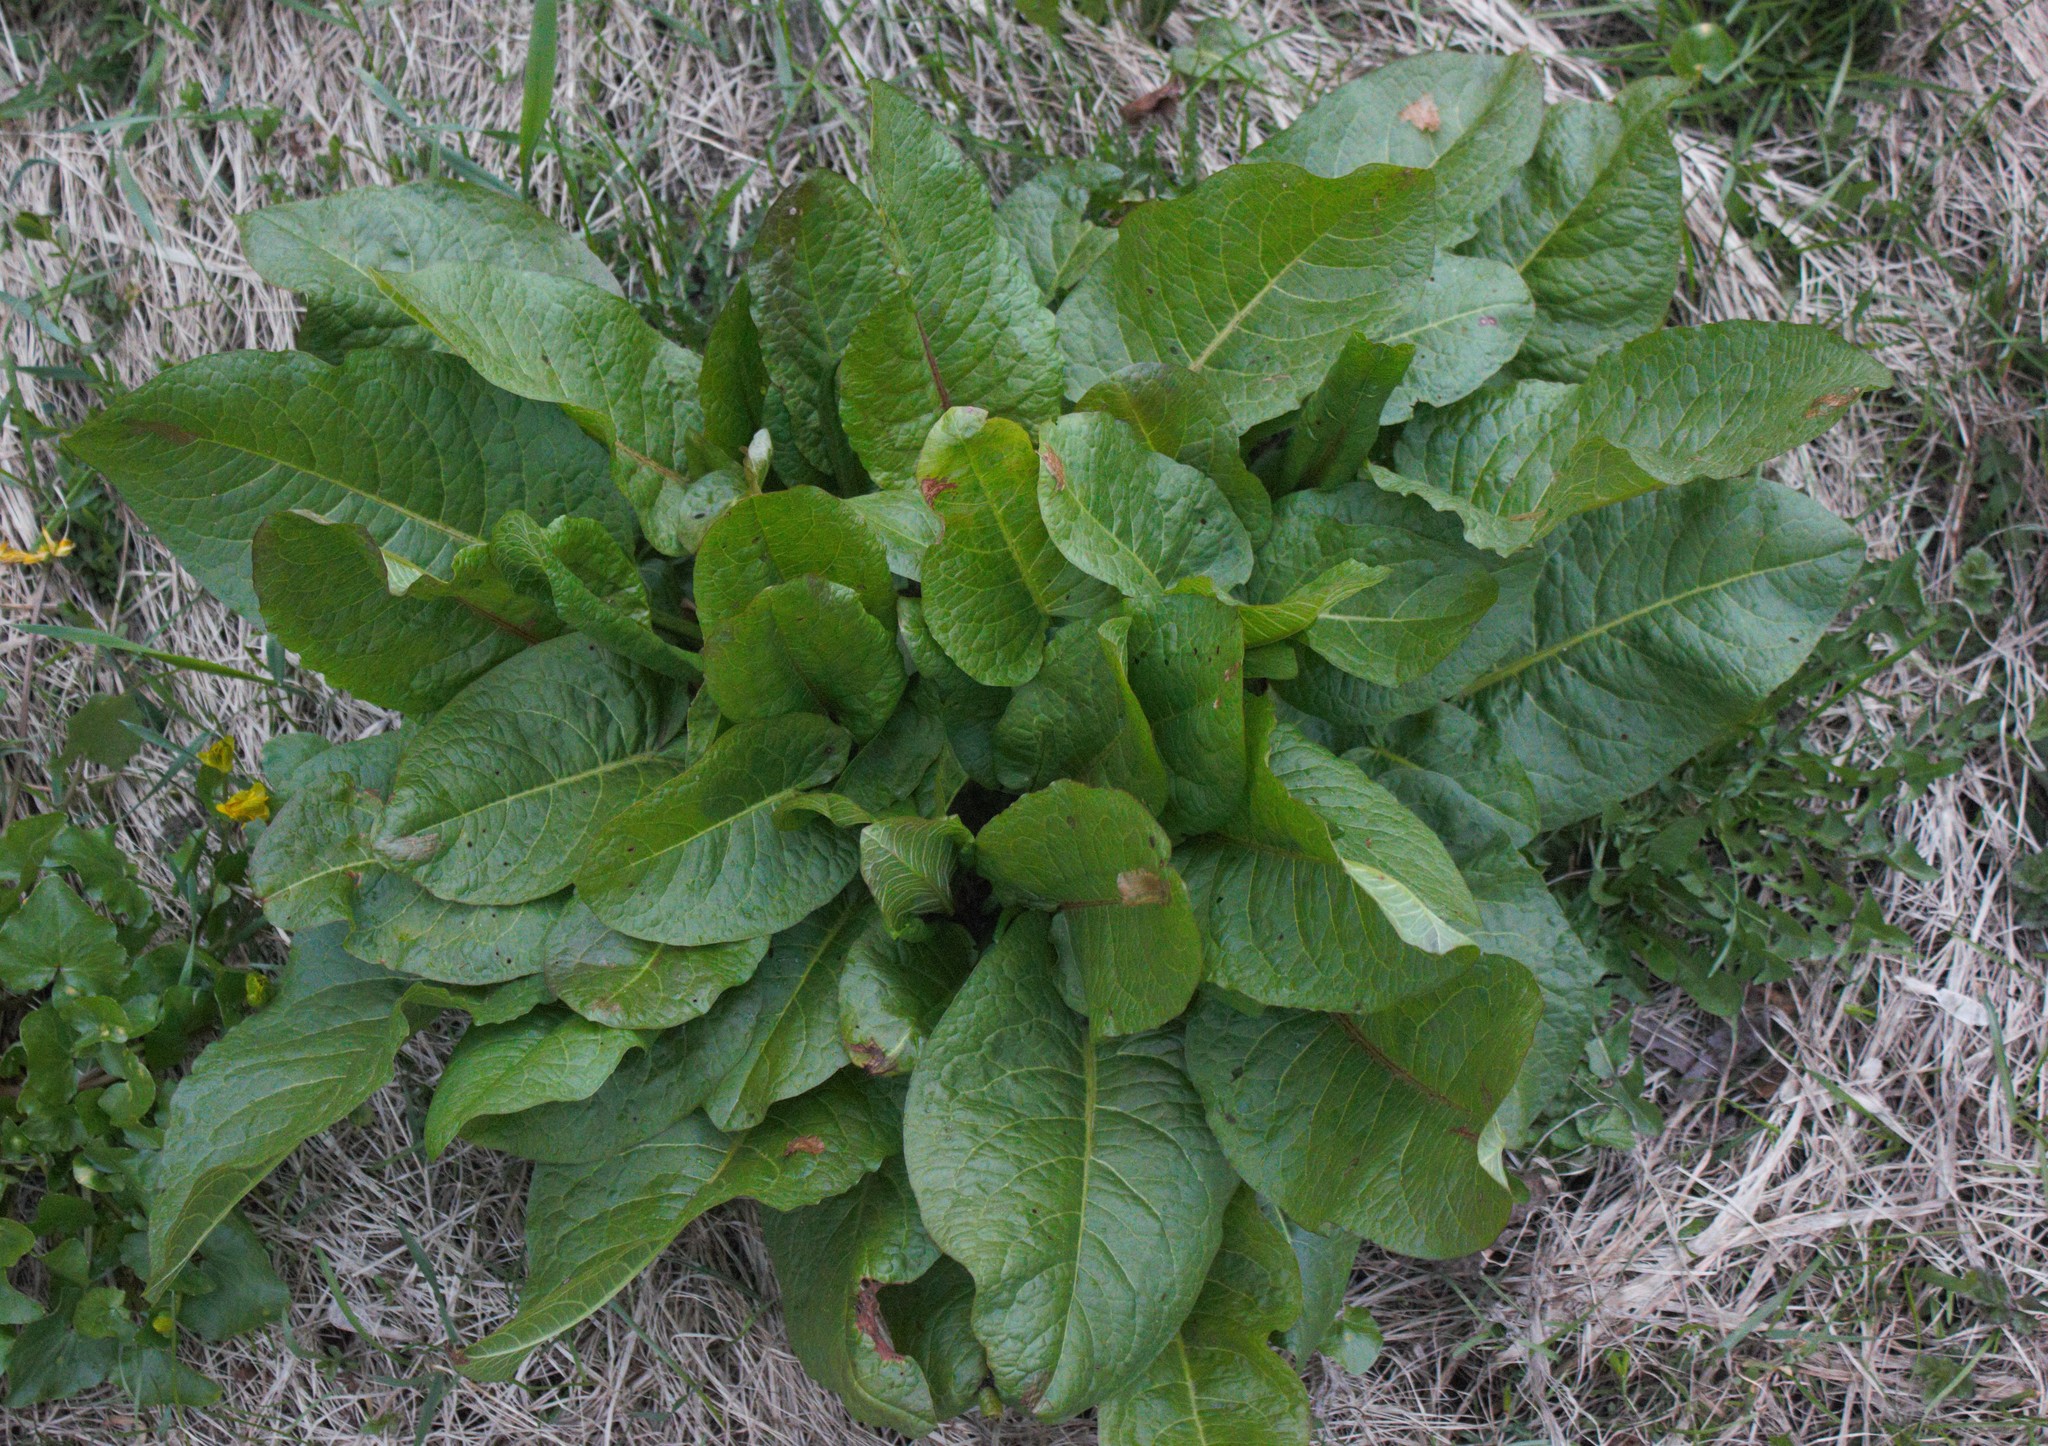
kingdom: Plantae
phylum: Tracheophyta
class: Magnoliopsida
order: Caryophyllales
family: Polygonaceae
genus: Rumex
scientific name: Rumex obtusifolius
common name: Bitter dock
